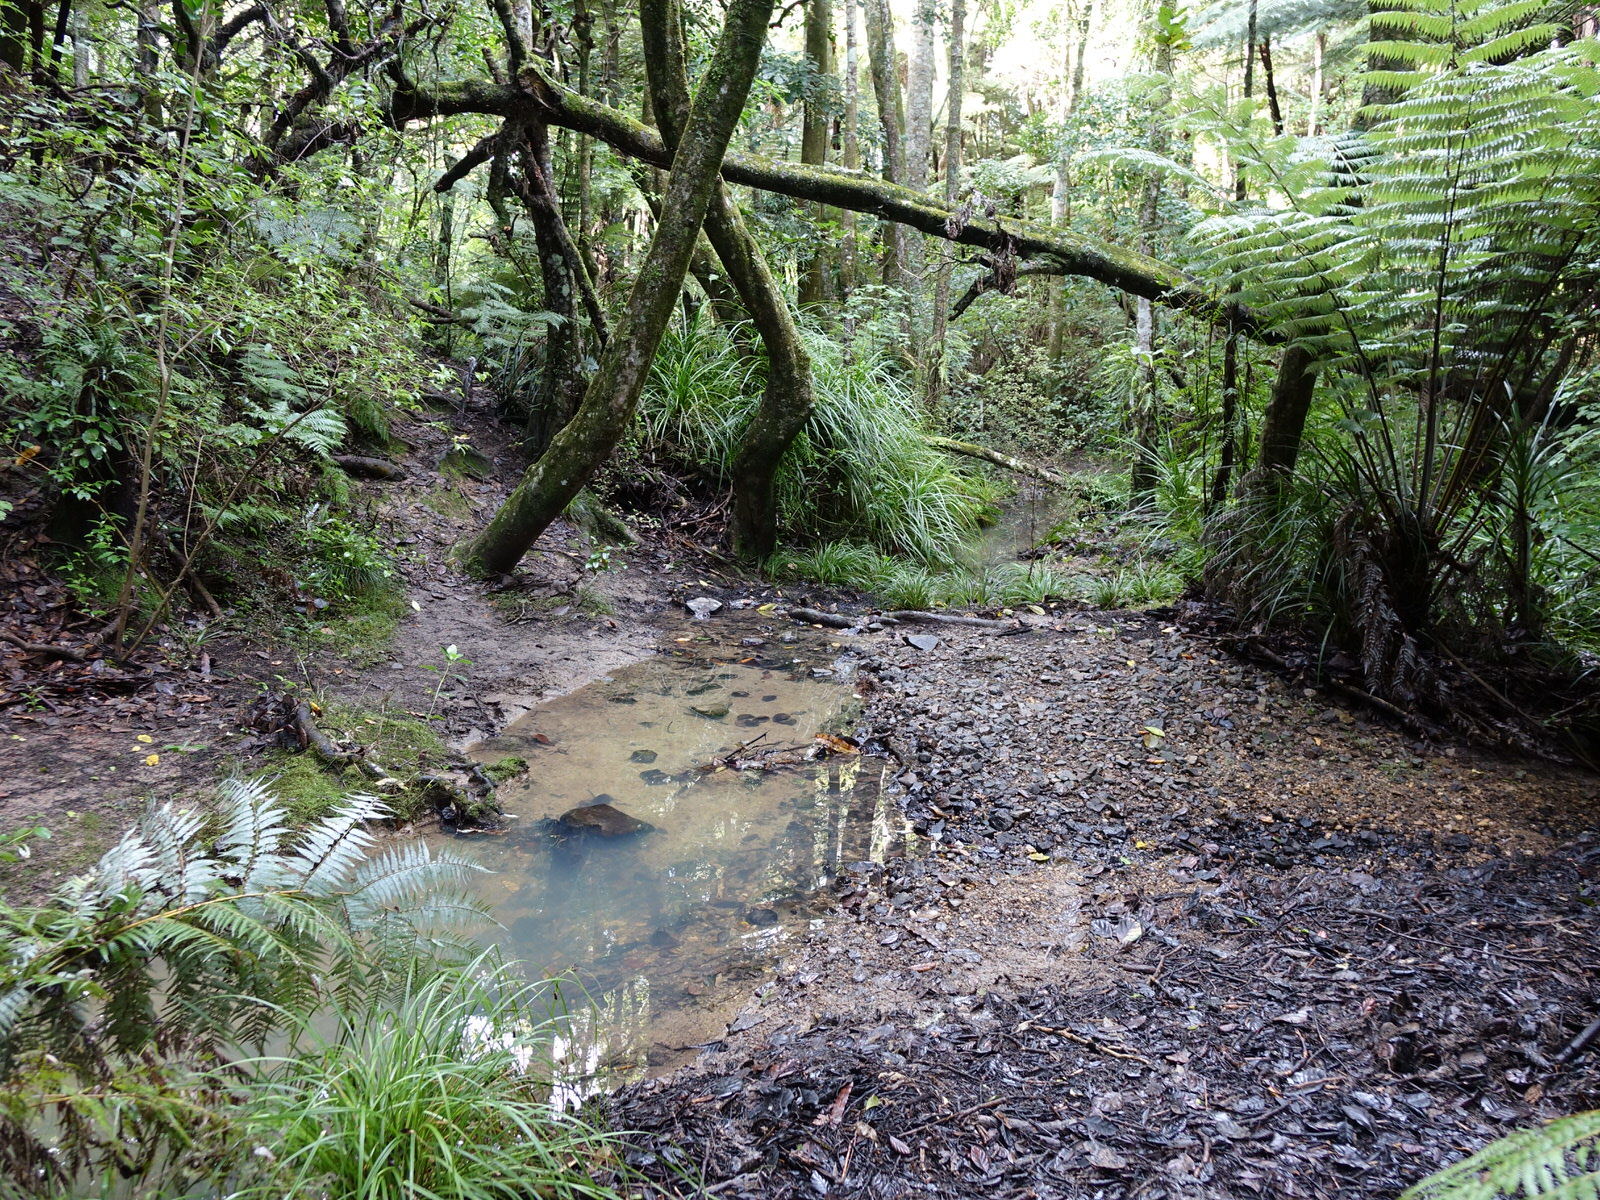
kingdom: Animalia
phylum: Mollusca
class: Bivalvia
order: Unionida
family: Hyriidae
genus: Echyridella
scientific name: Echyridella menziesii
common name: New zealand freshwater mussel
